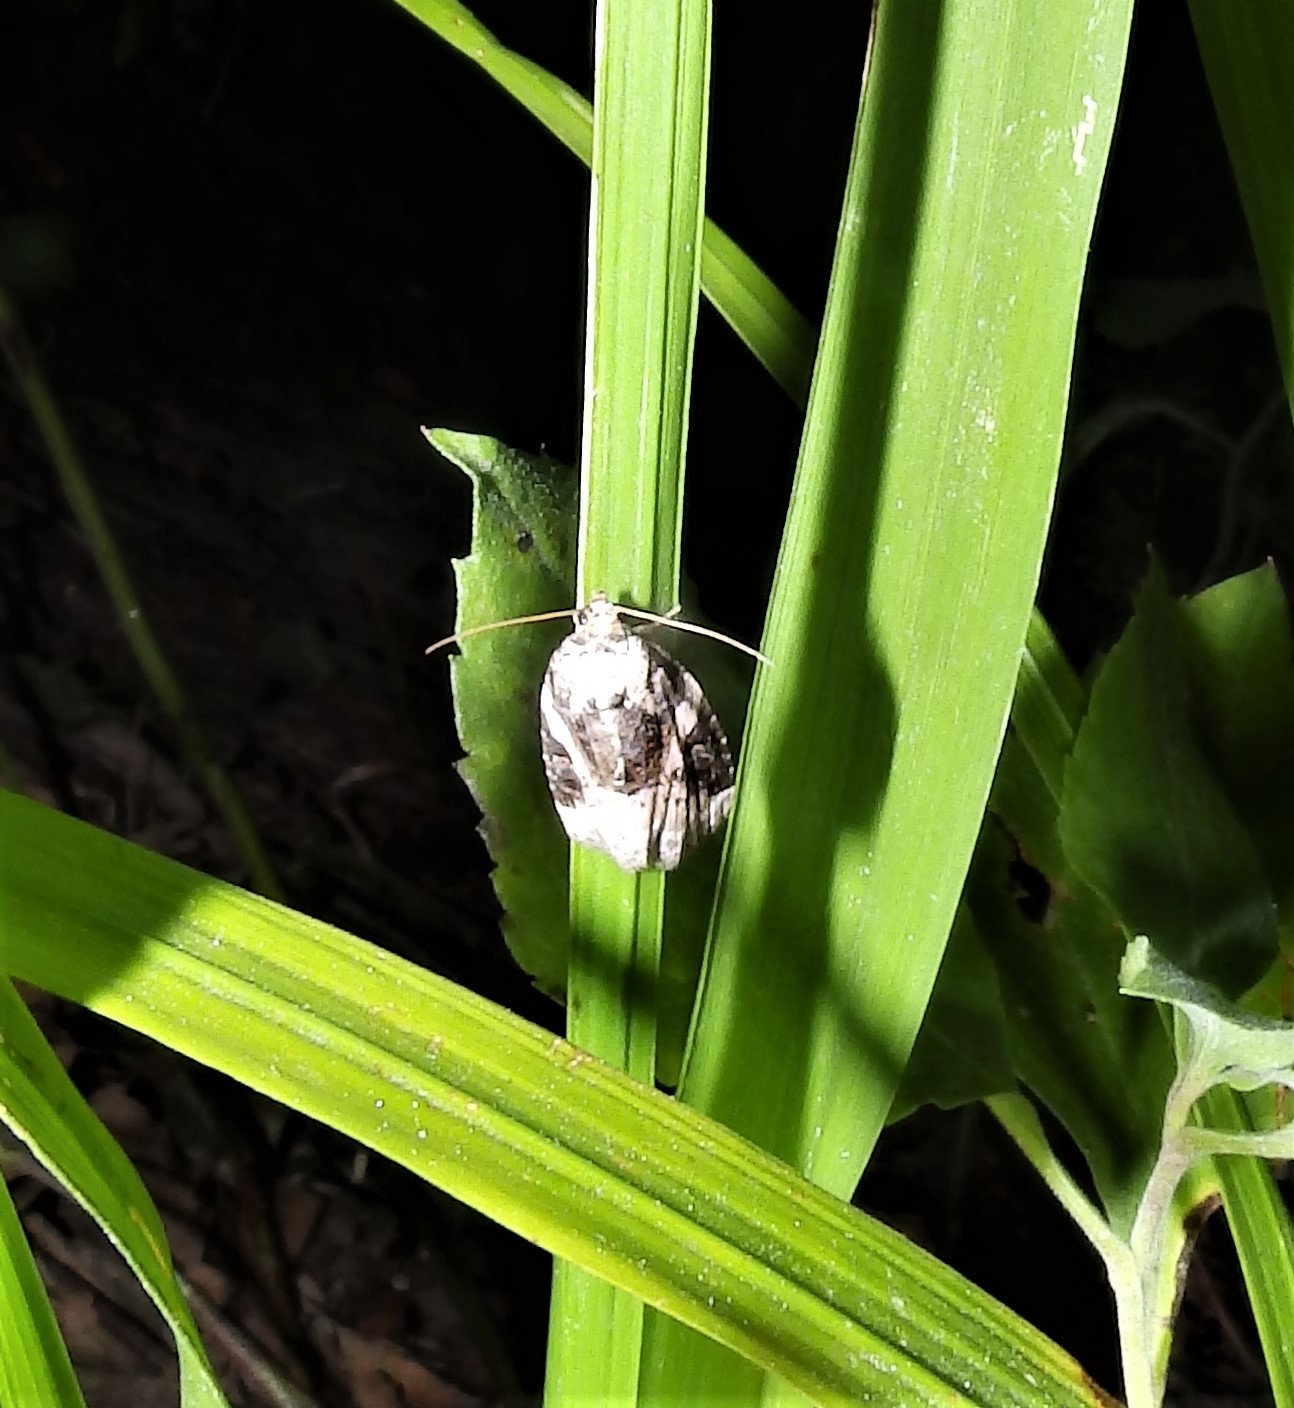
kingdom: Animalia
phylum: Arthropoda
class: Insecta
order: Lepidoptera
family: Noctuidae
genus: Pseudeustrotia
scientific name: Pseudeustrotia carneola
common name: Pink-barred lithacodia moth
